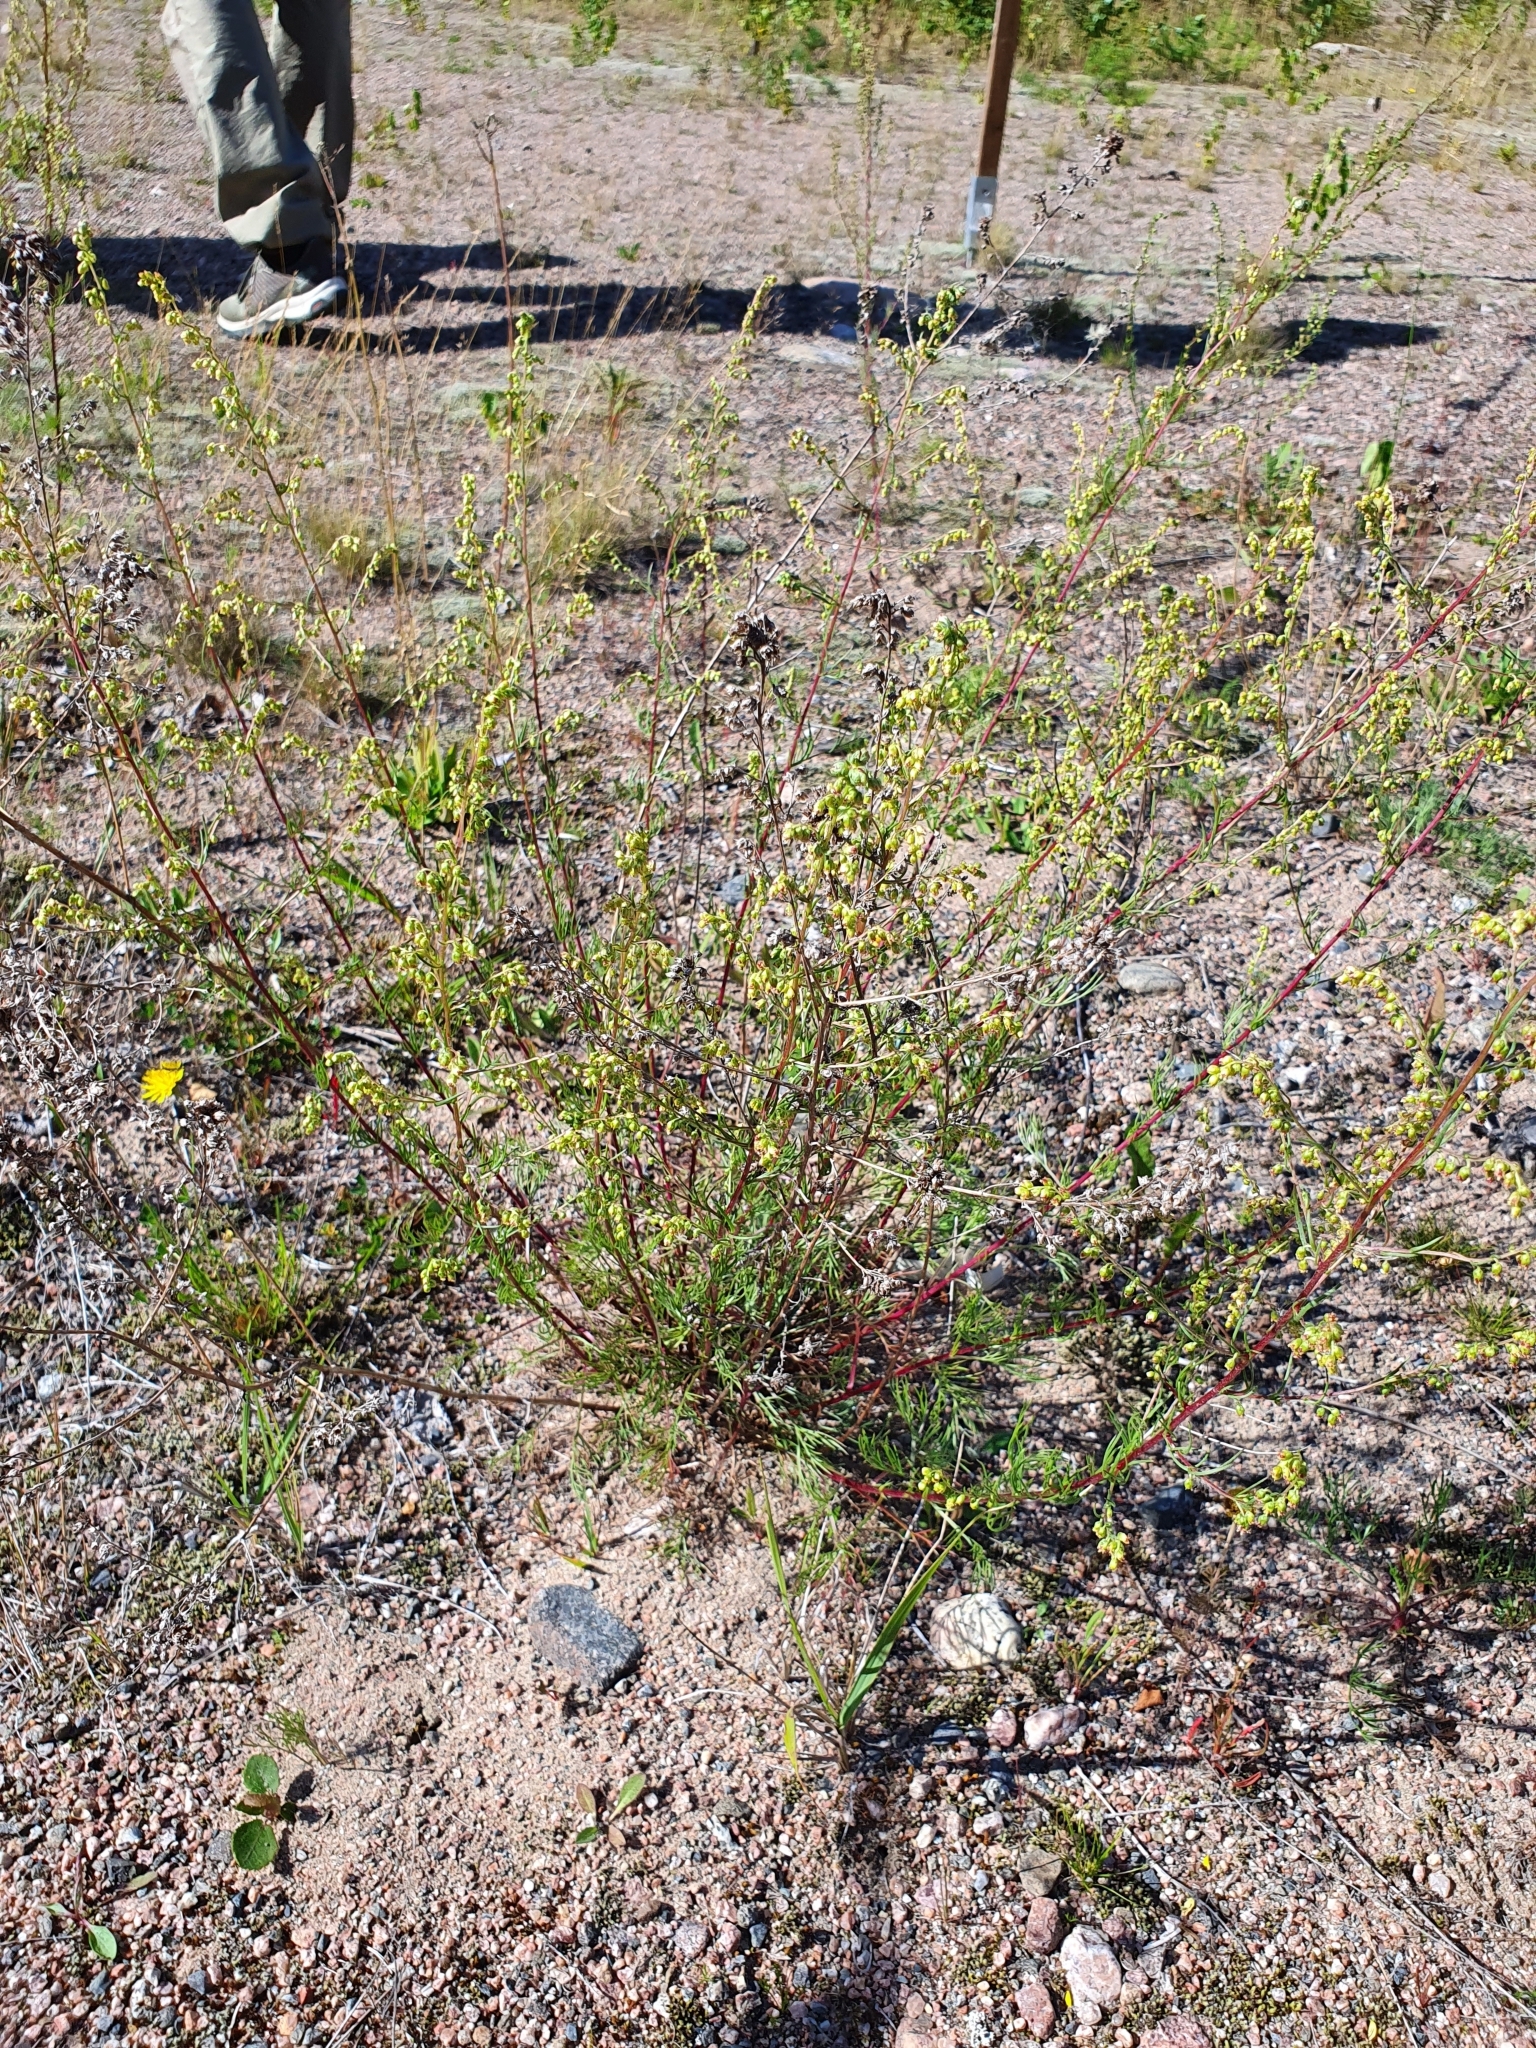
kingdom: Plantae
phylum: Tracheophyta
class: Magnoliopsida
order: Asterales
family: Asteraceae
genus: Artemisia
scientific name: Artemisia campestris
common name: Field wormwood
